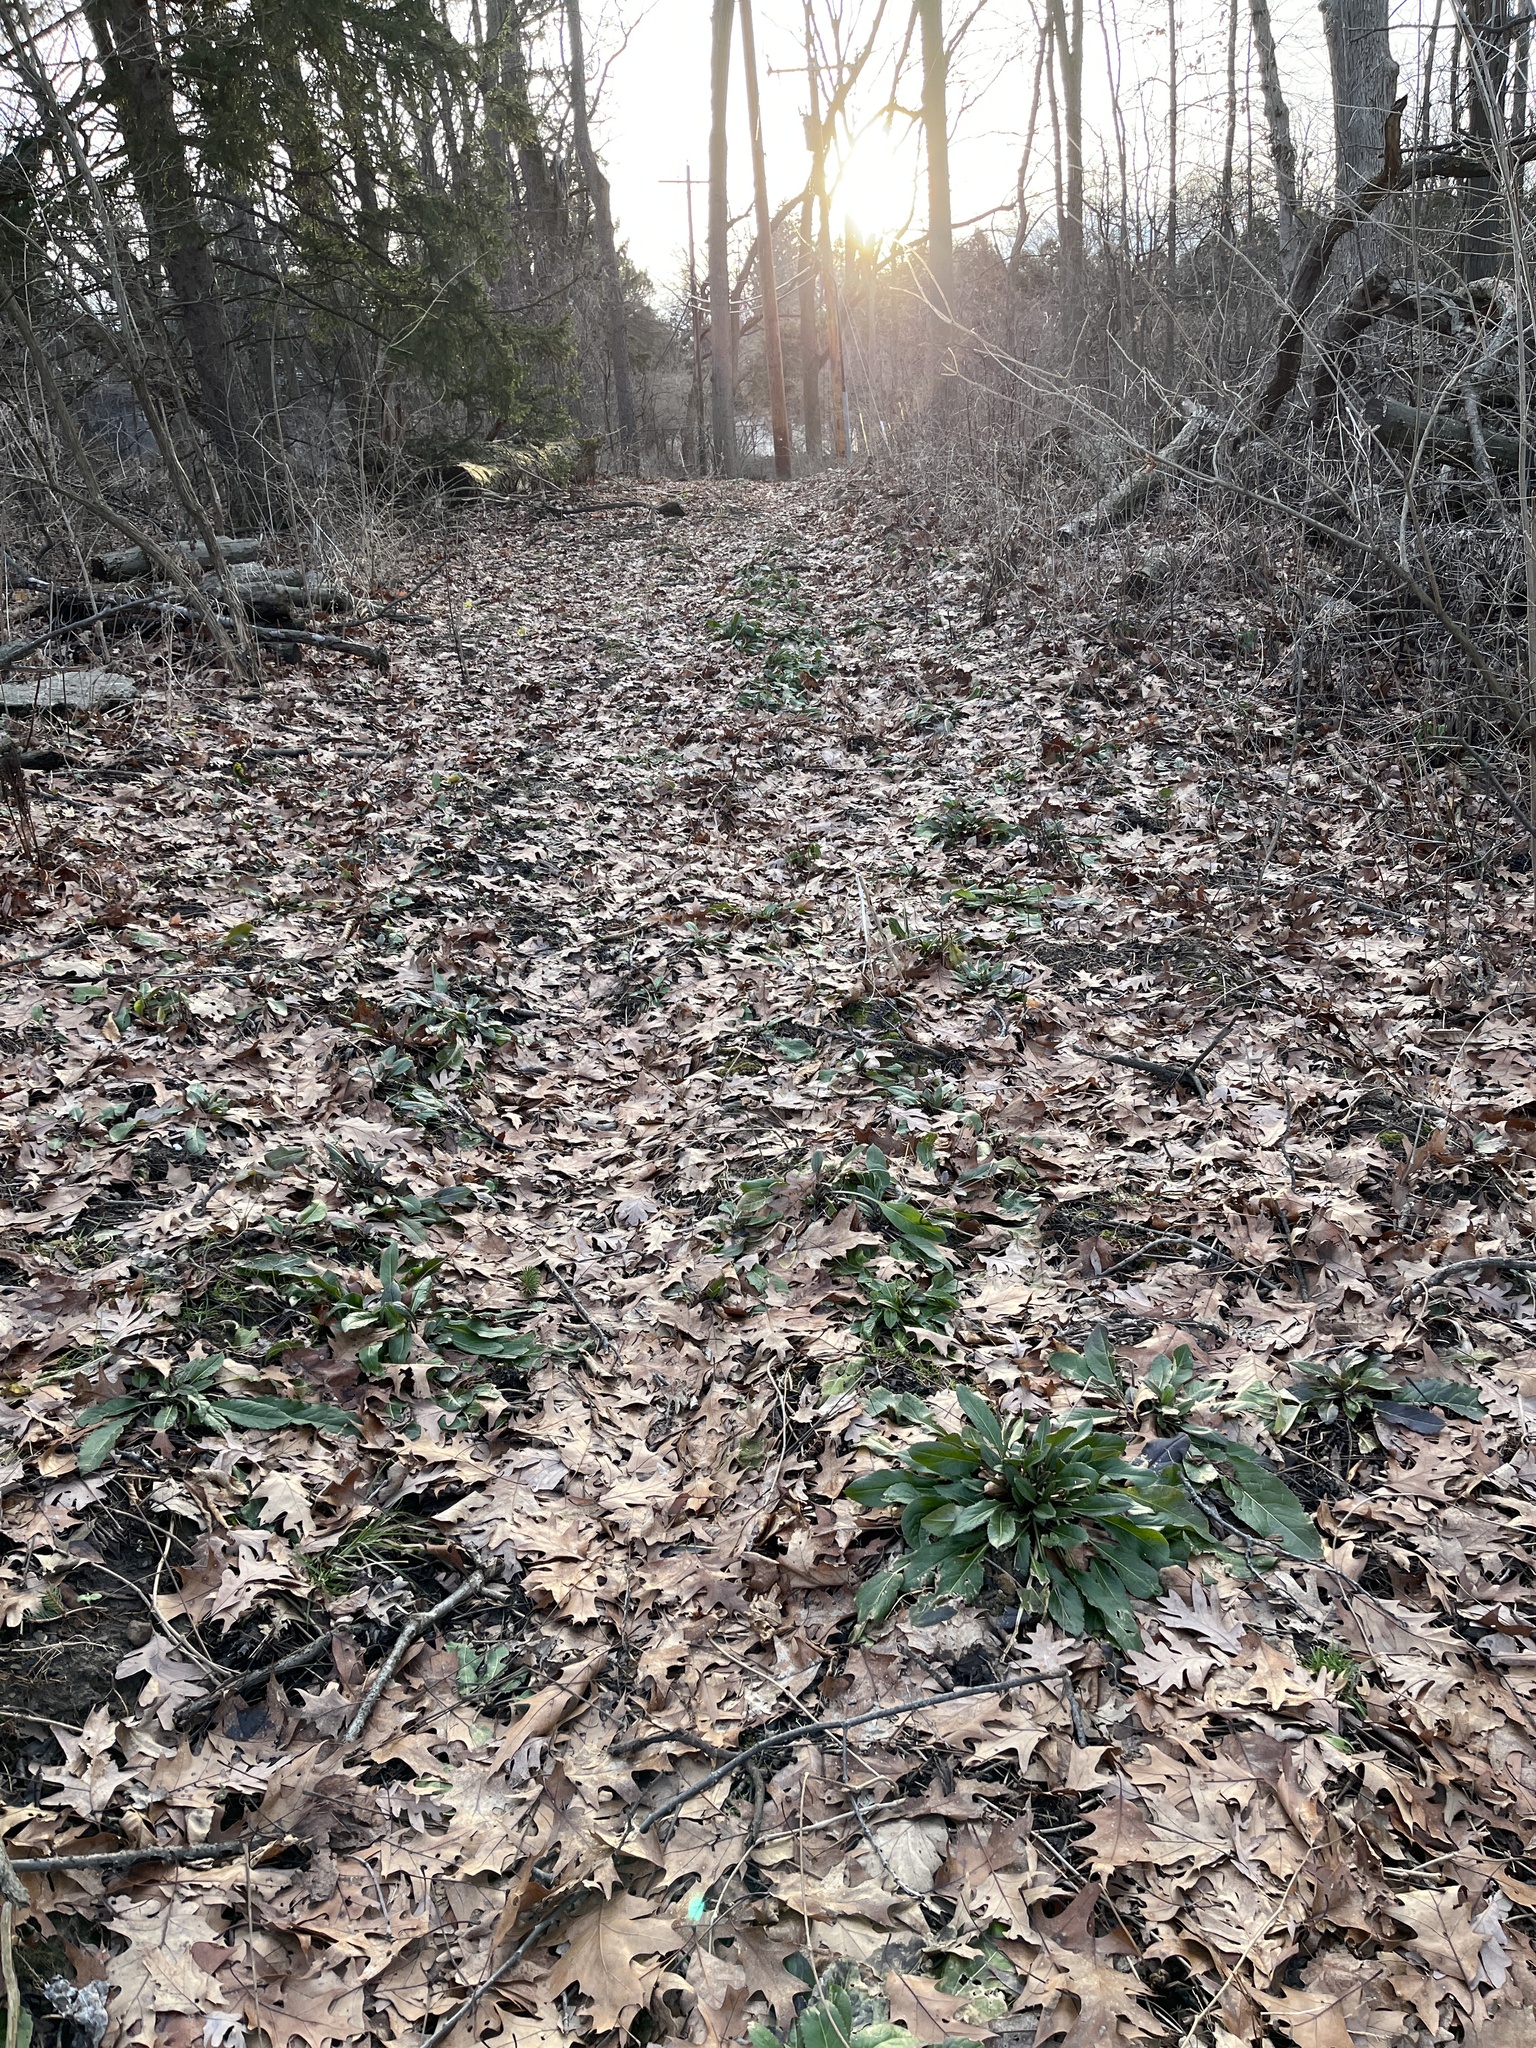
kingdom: Plantae
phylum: Tracheophyta
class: Magnoliopsida
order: Brassicales
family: Brassicaceae
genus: Hesperis
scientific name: Hesperis matronalis
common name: Dame's-violet
